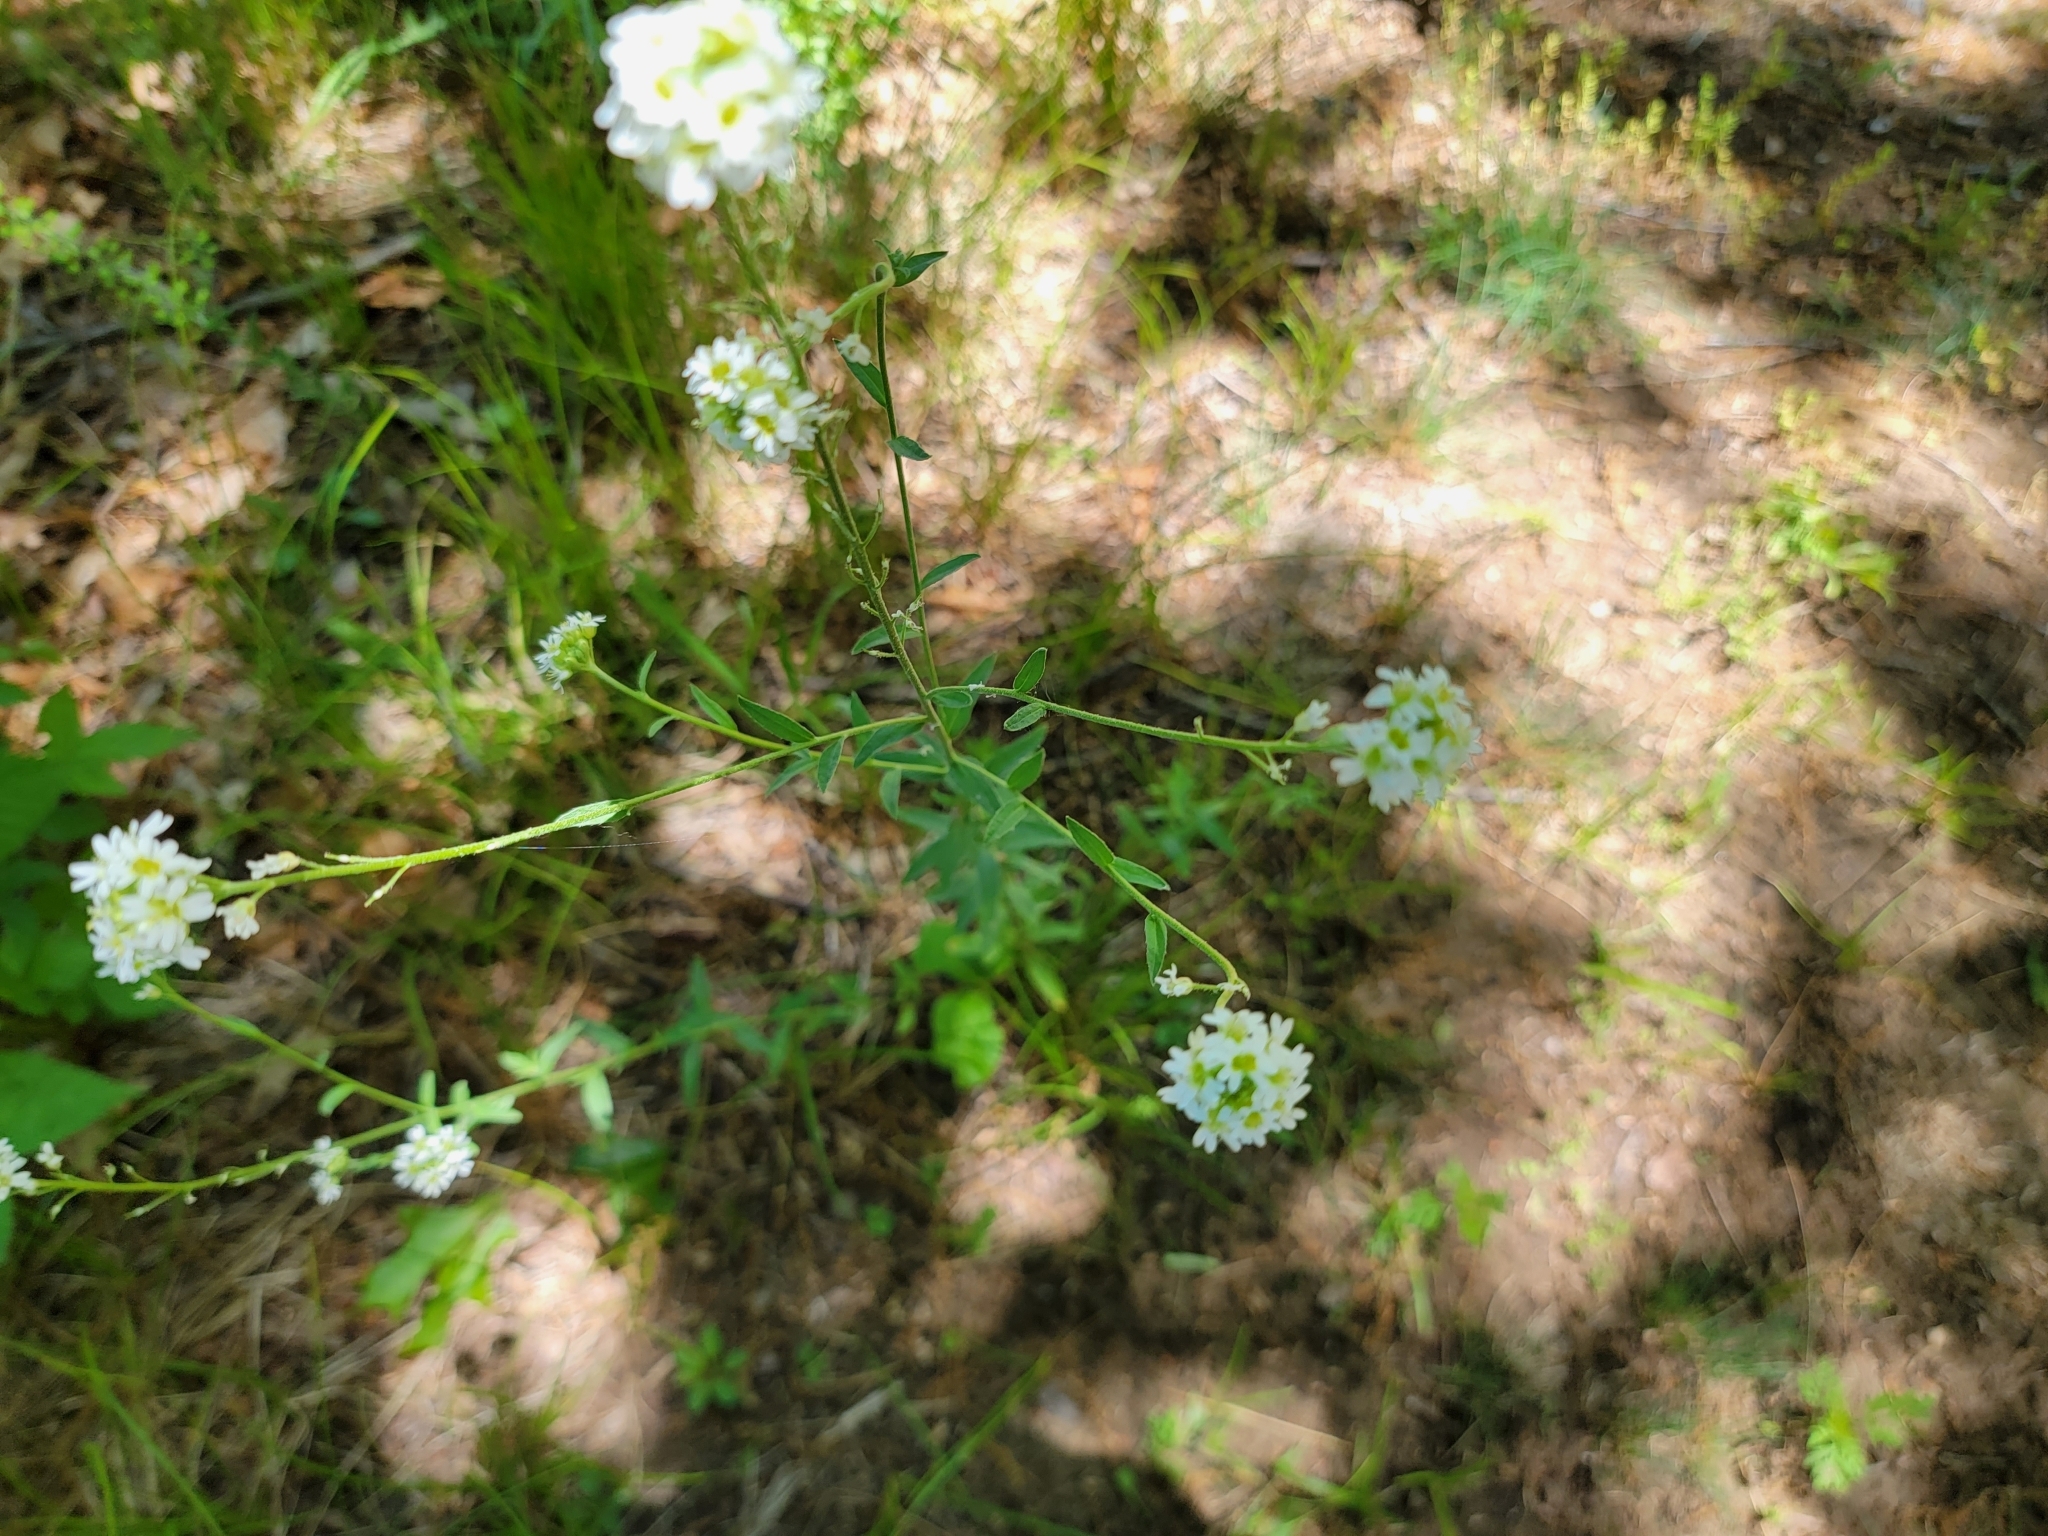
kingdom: Plantae
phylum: Tracheophyta
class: Magnoliopsida
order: Brassicales
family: Brassicaceae
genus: Berteroa
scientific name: Berteroa incana
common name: Hoary alison
